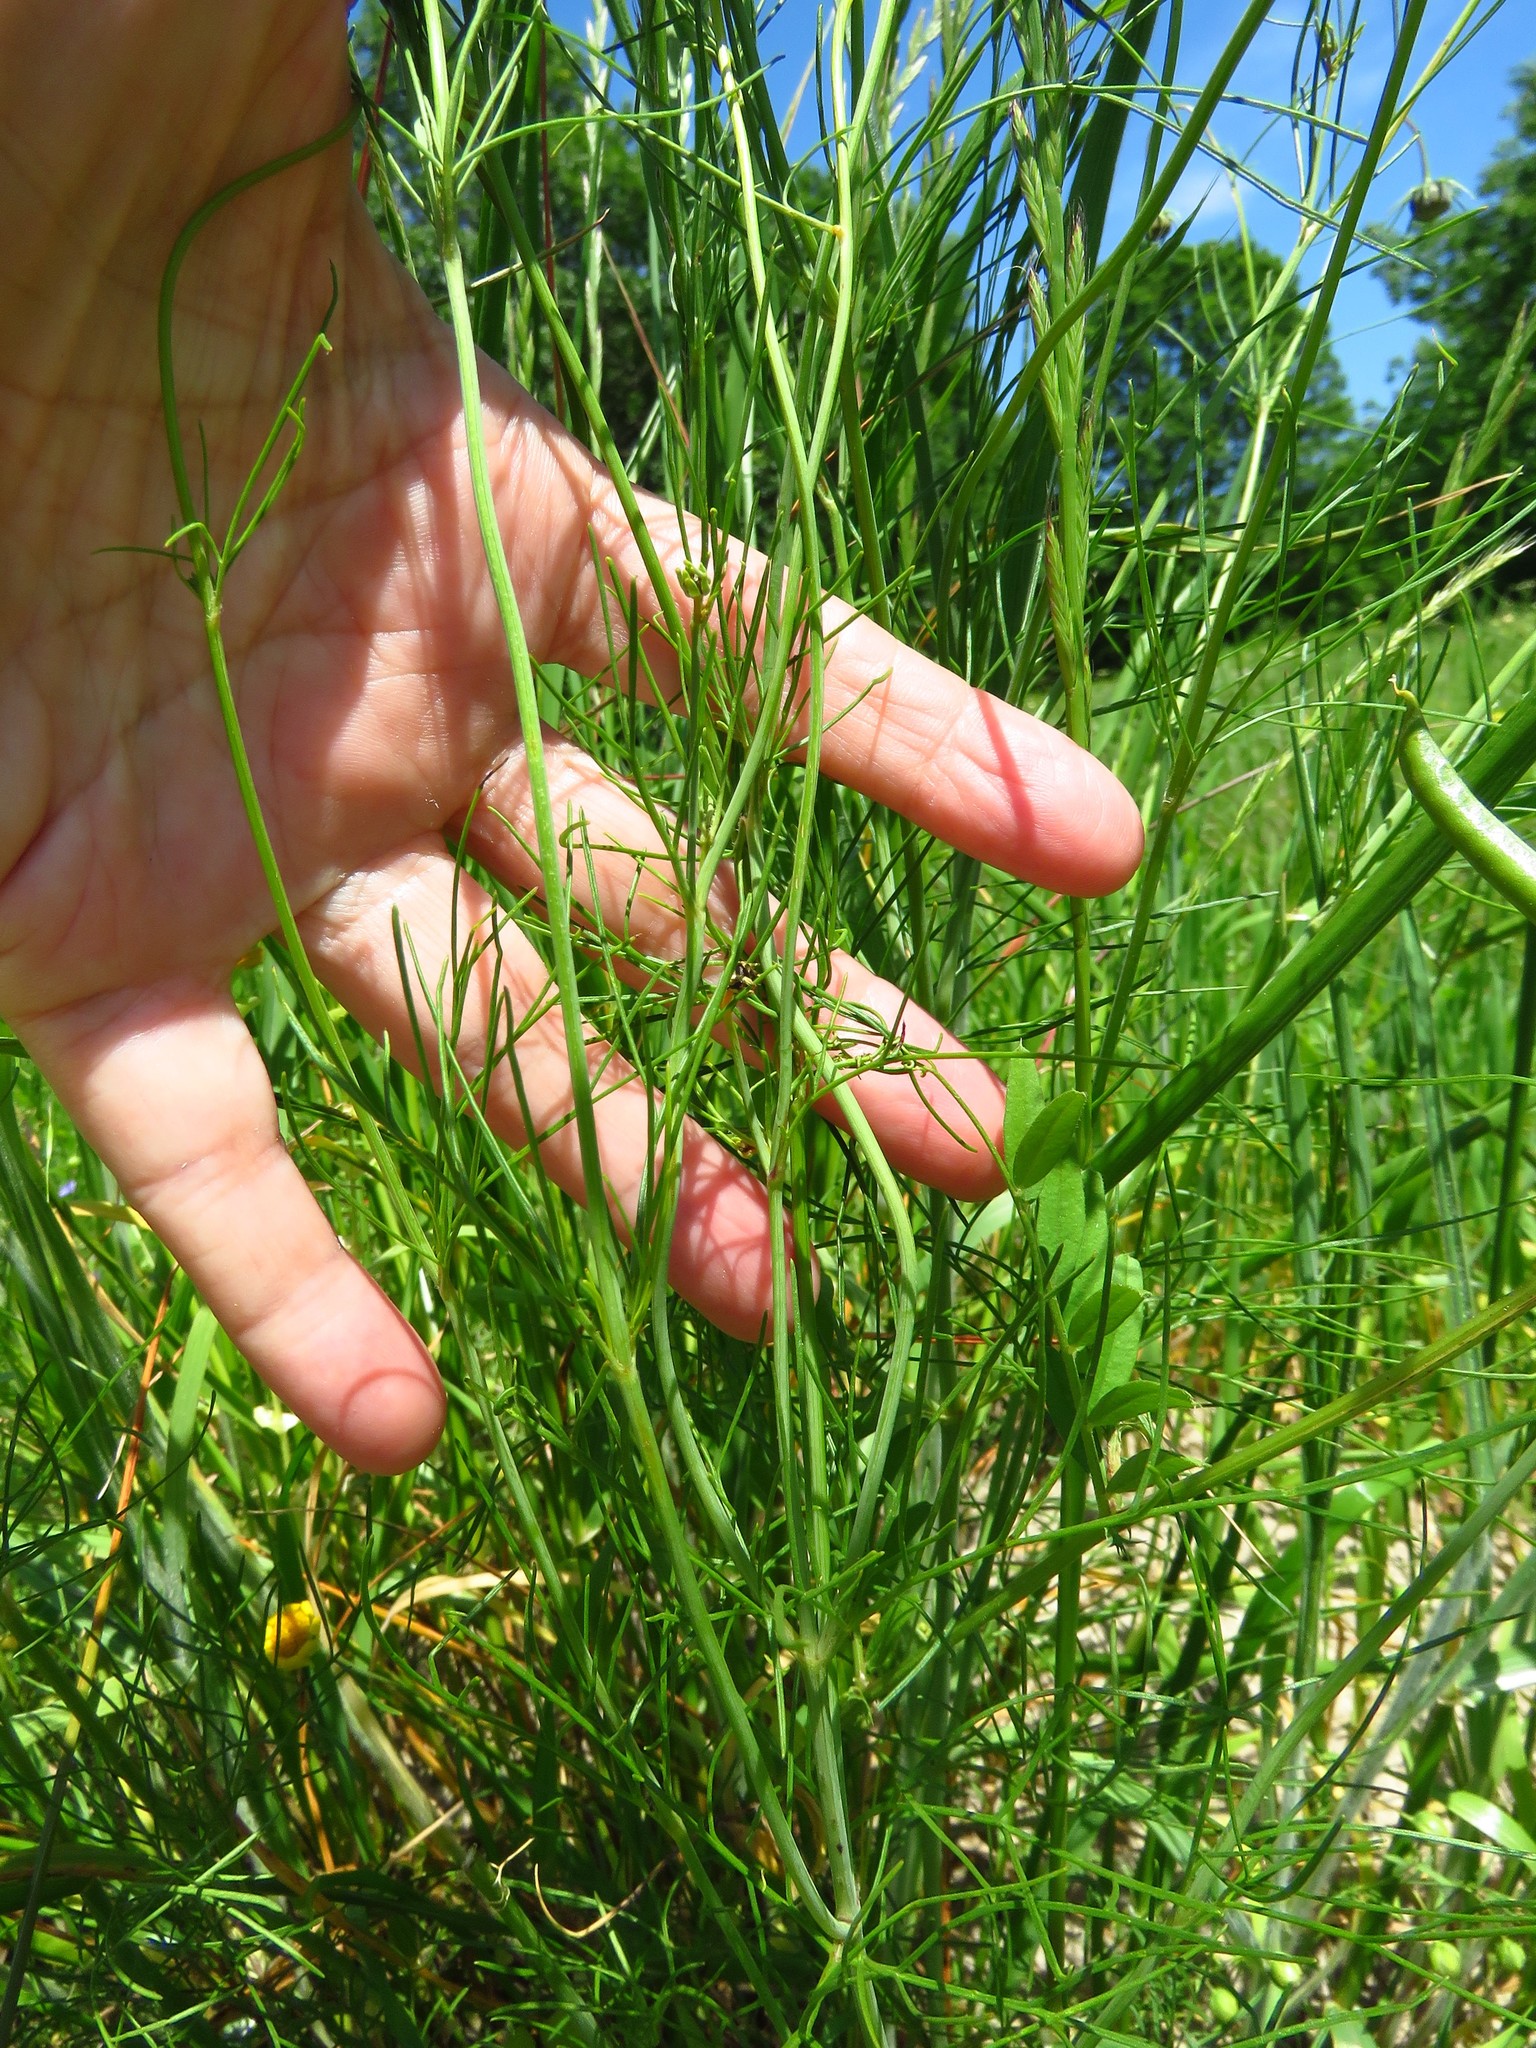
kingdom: Plantae
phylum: Tracheophyta
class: Magnoliopsida
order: Asterales
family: Asteraceae
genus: Thelesperma
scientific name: Thelesperma filifolium
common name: Stiff greenthread
